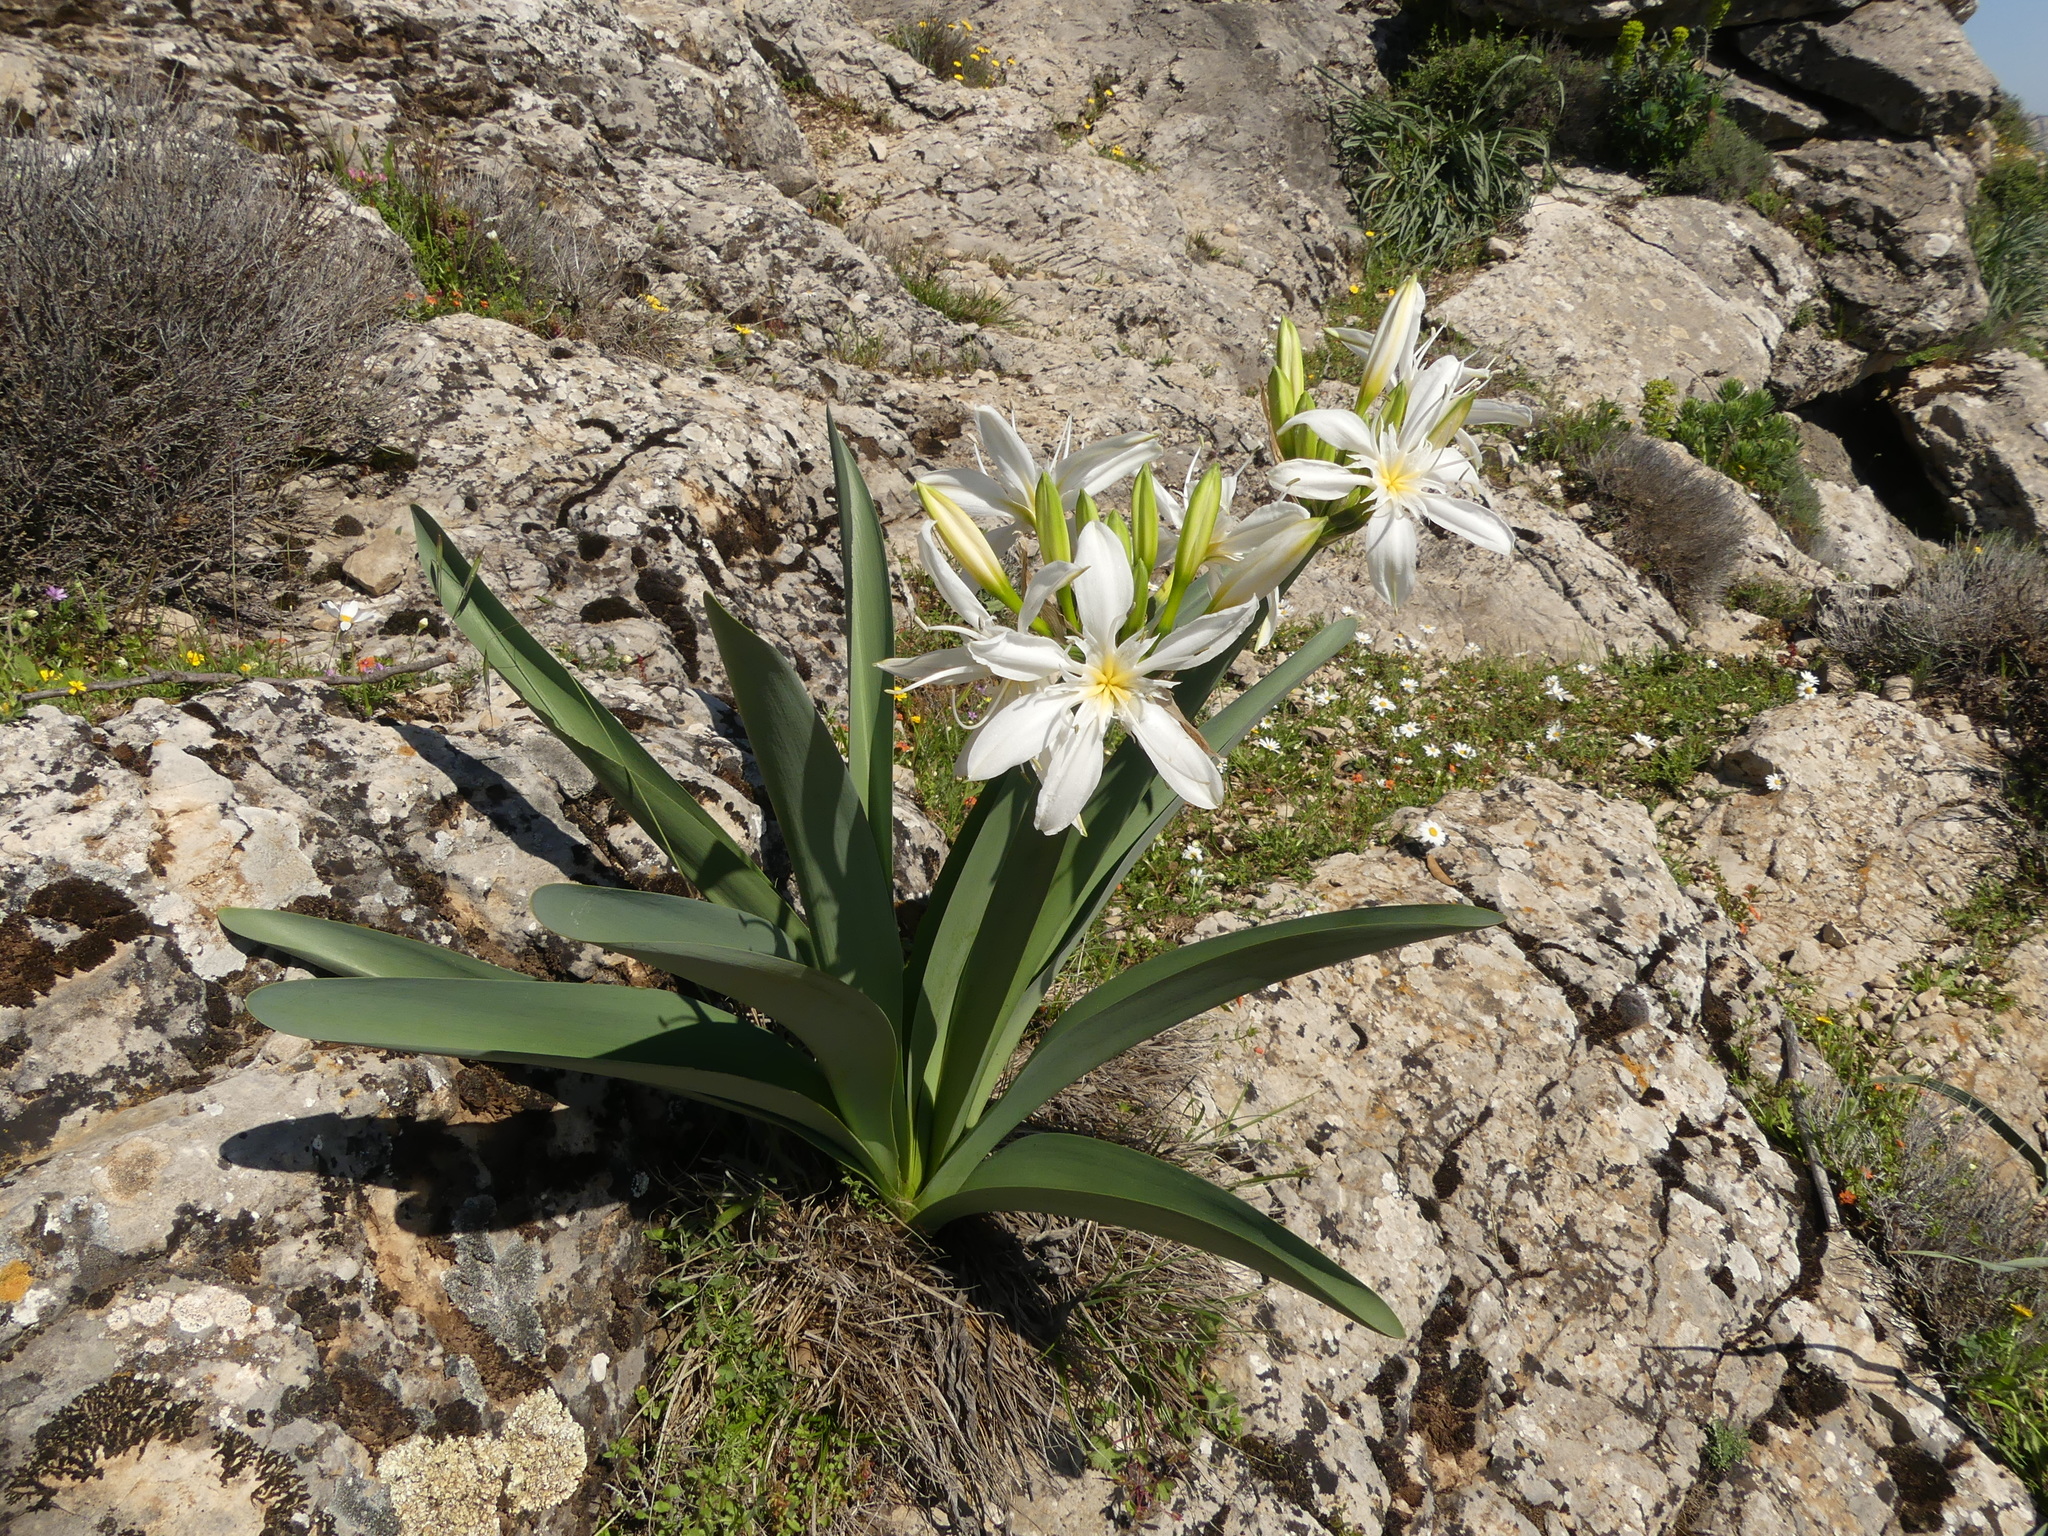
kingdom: Plantae
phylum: Tracheophyta
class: Liliopsida
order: Asparagales
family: Amaryllidaceae
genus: Pancratium
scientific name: Pancratium illyricum
